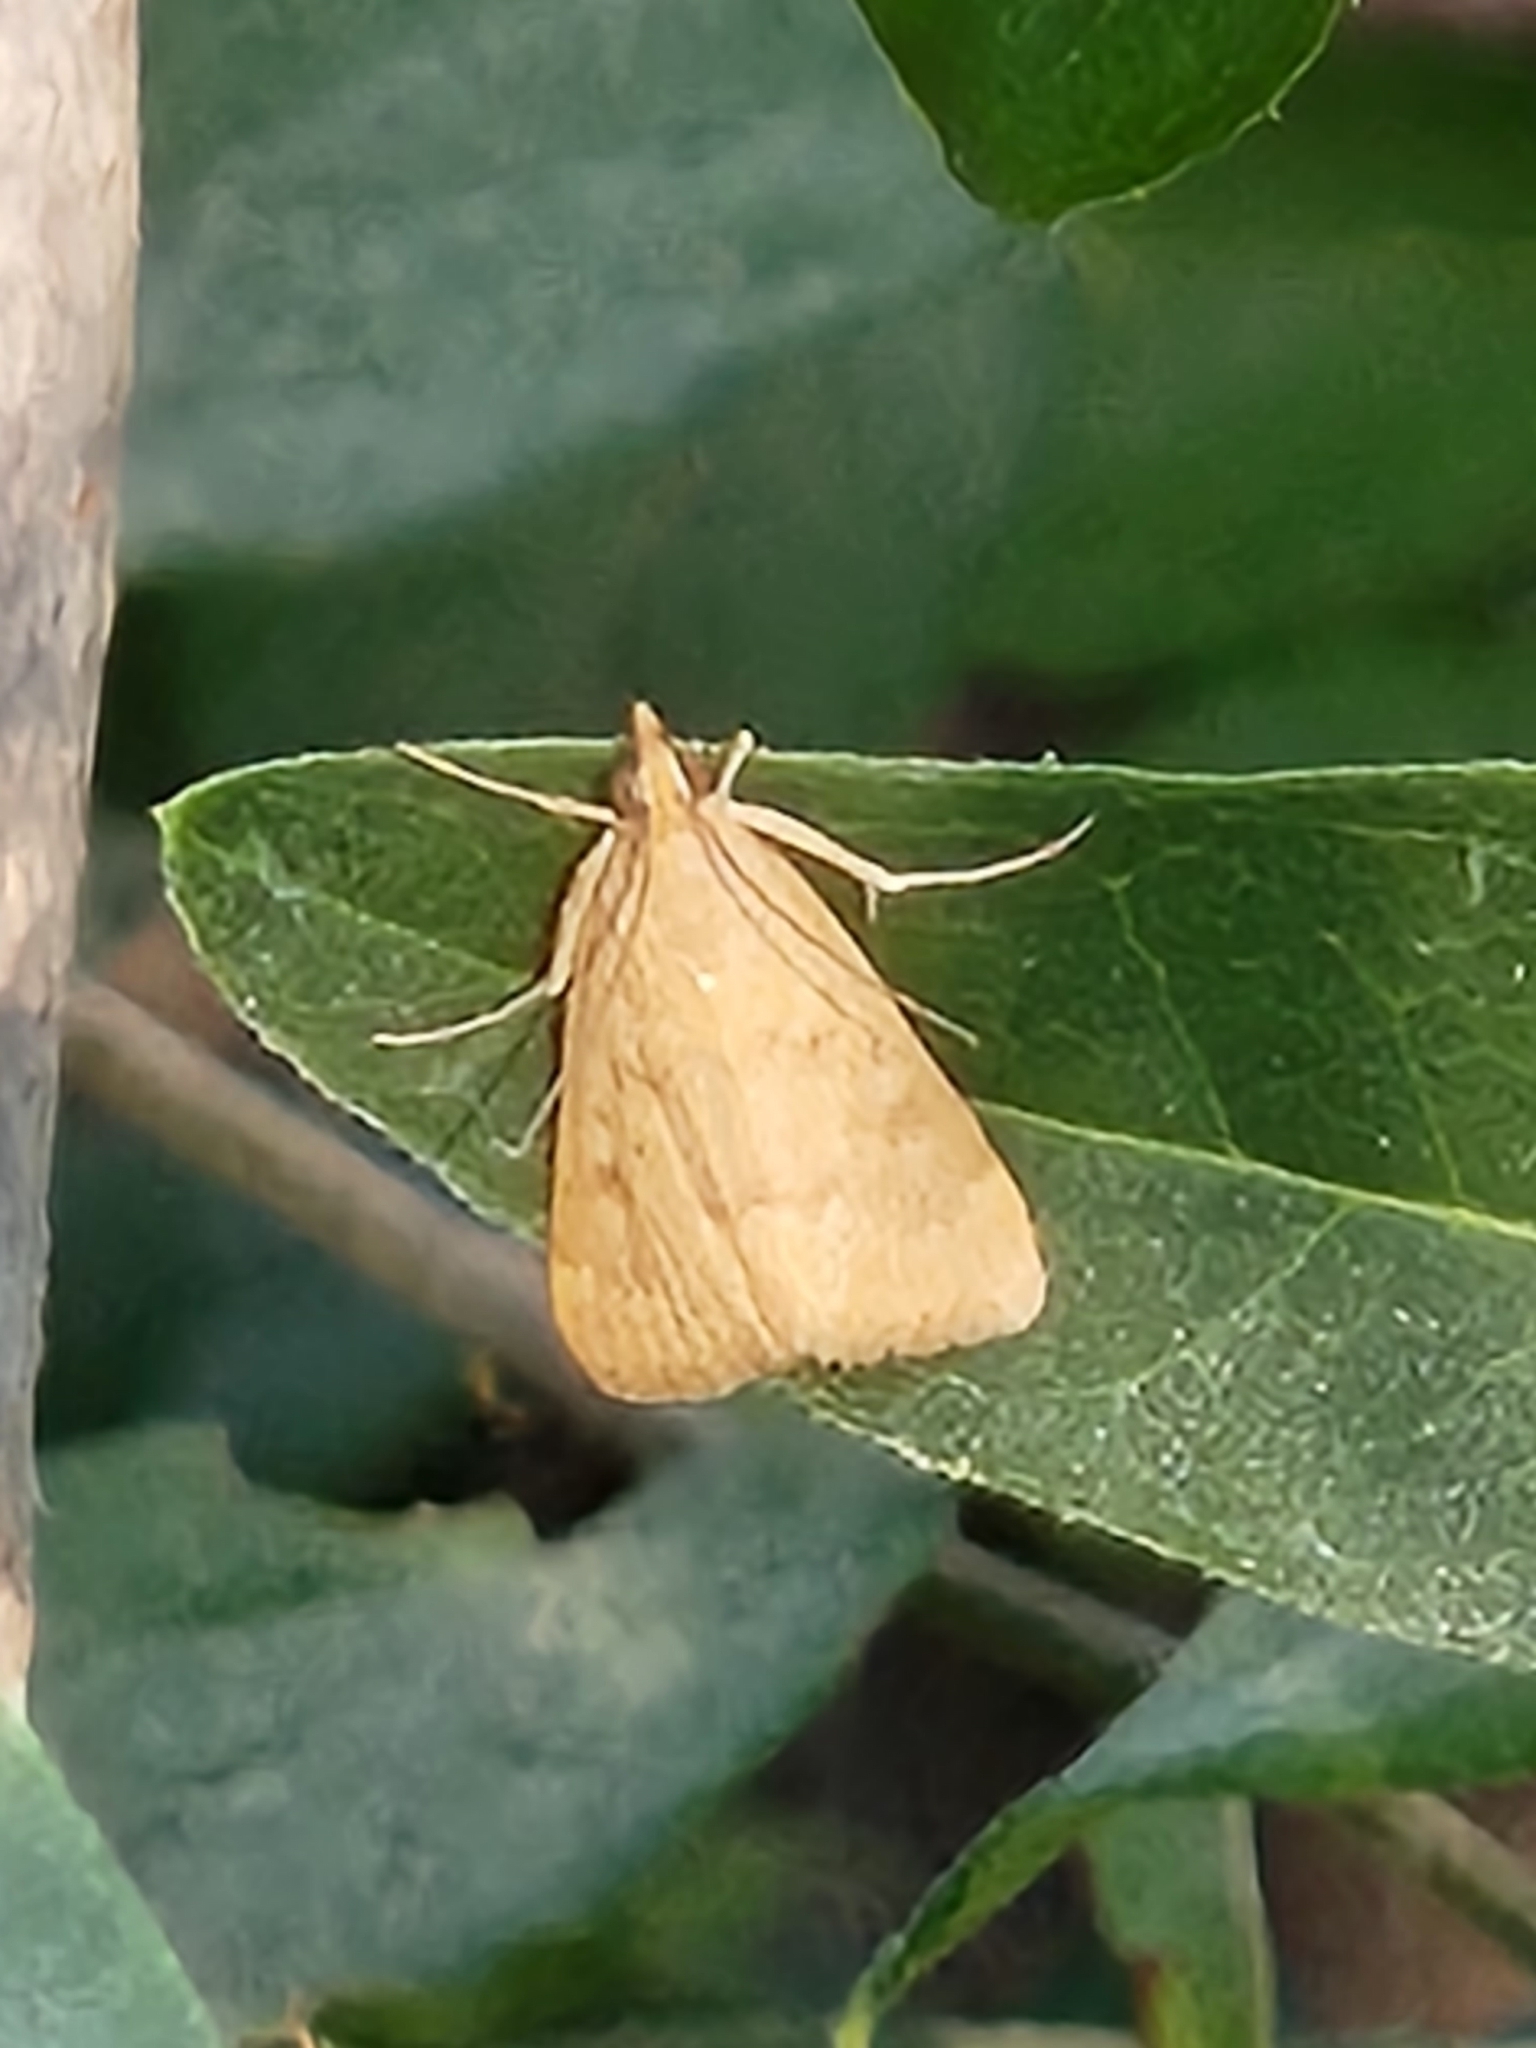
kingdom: Animalia
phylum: Arthropoda
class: Insecta
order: Lepidoptera
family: Crambidae
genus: Achyra
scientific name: Achyra rantalis
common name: Garden webworm
